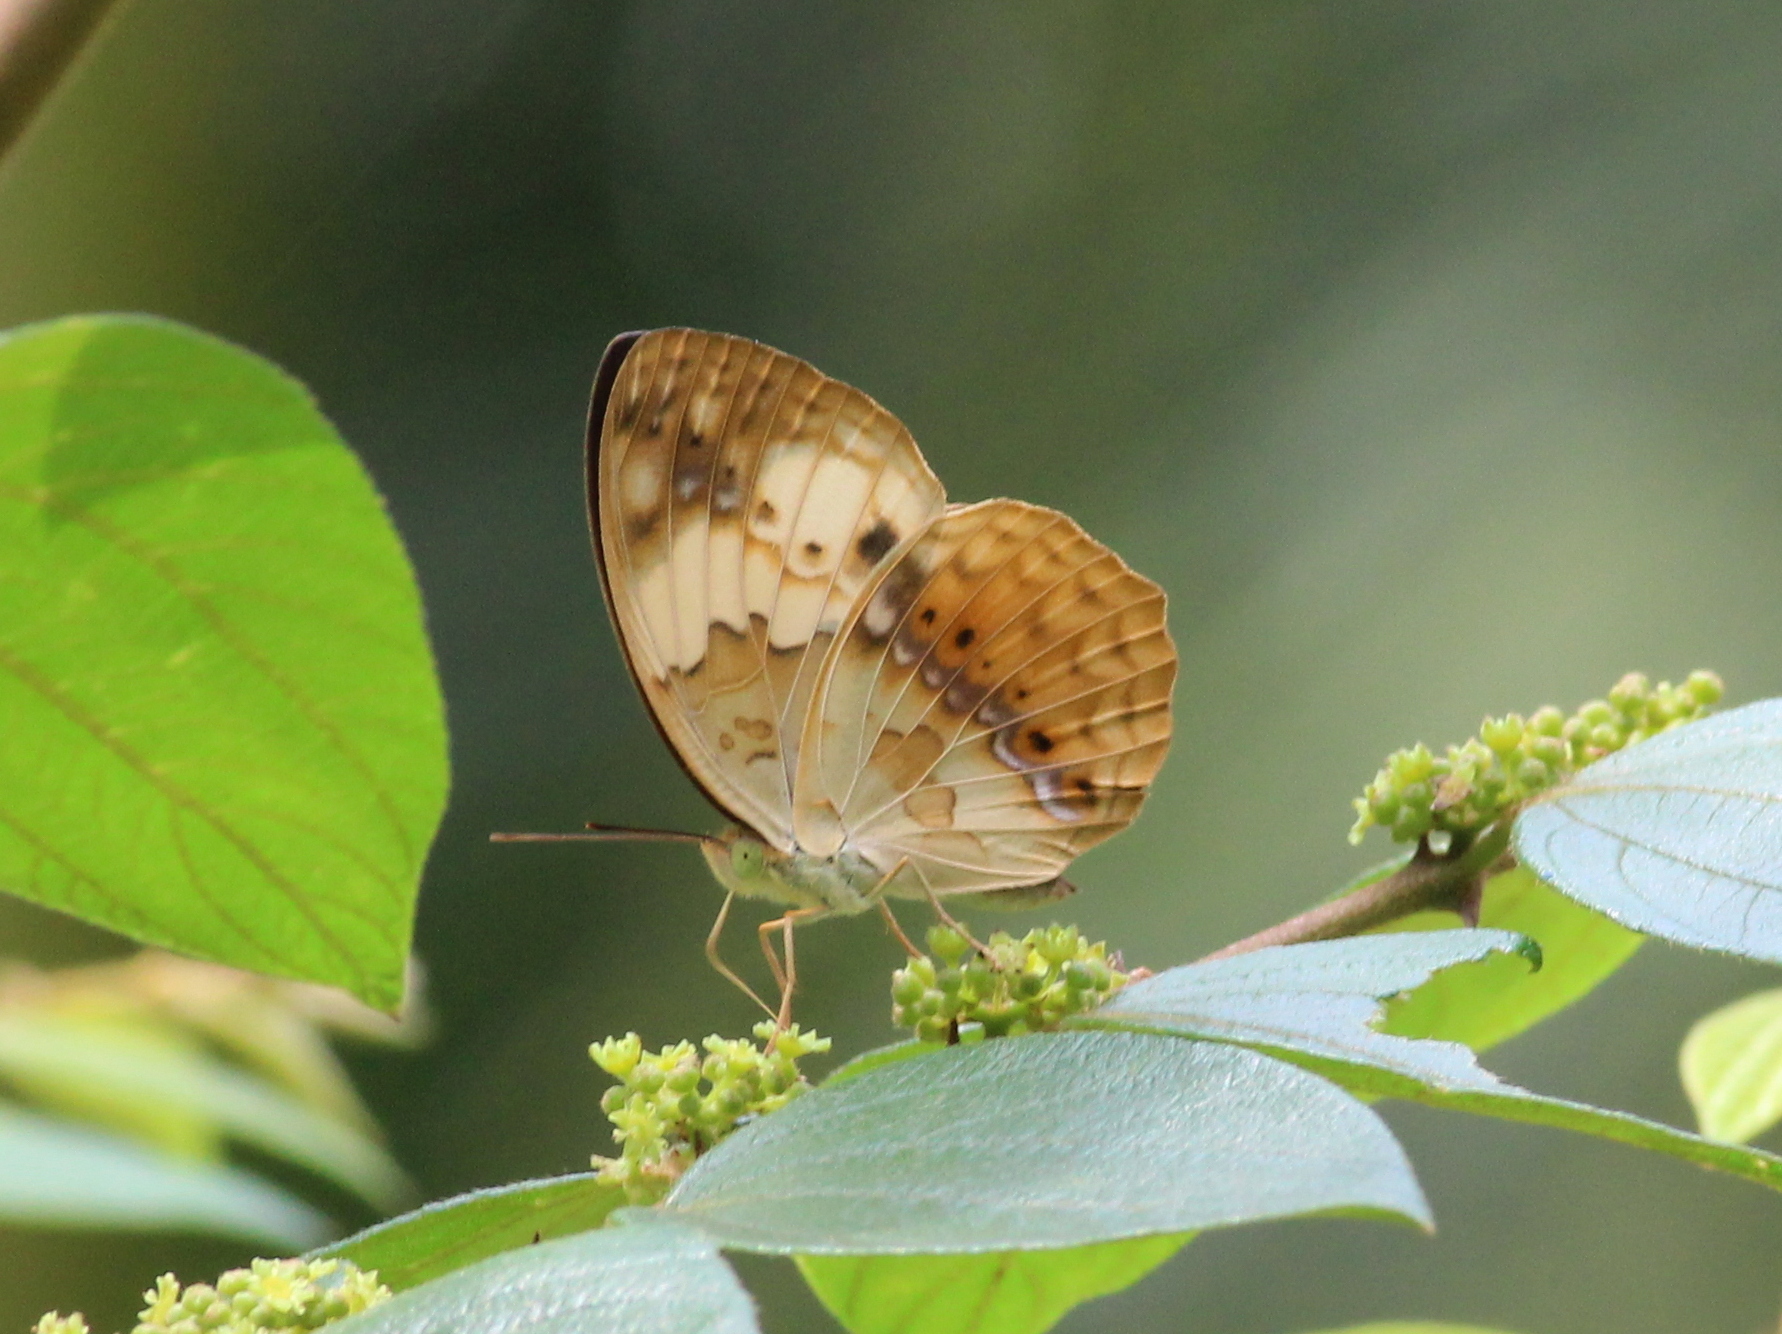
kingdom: Animalia
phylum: Arthropoda
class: Insecta
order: Lepidoptera
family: Nymphalidae
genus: Cupha
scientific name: Cupha erymanthis
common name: Rustic
